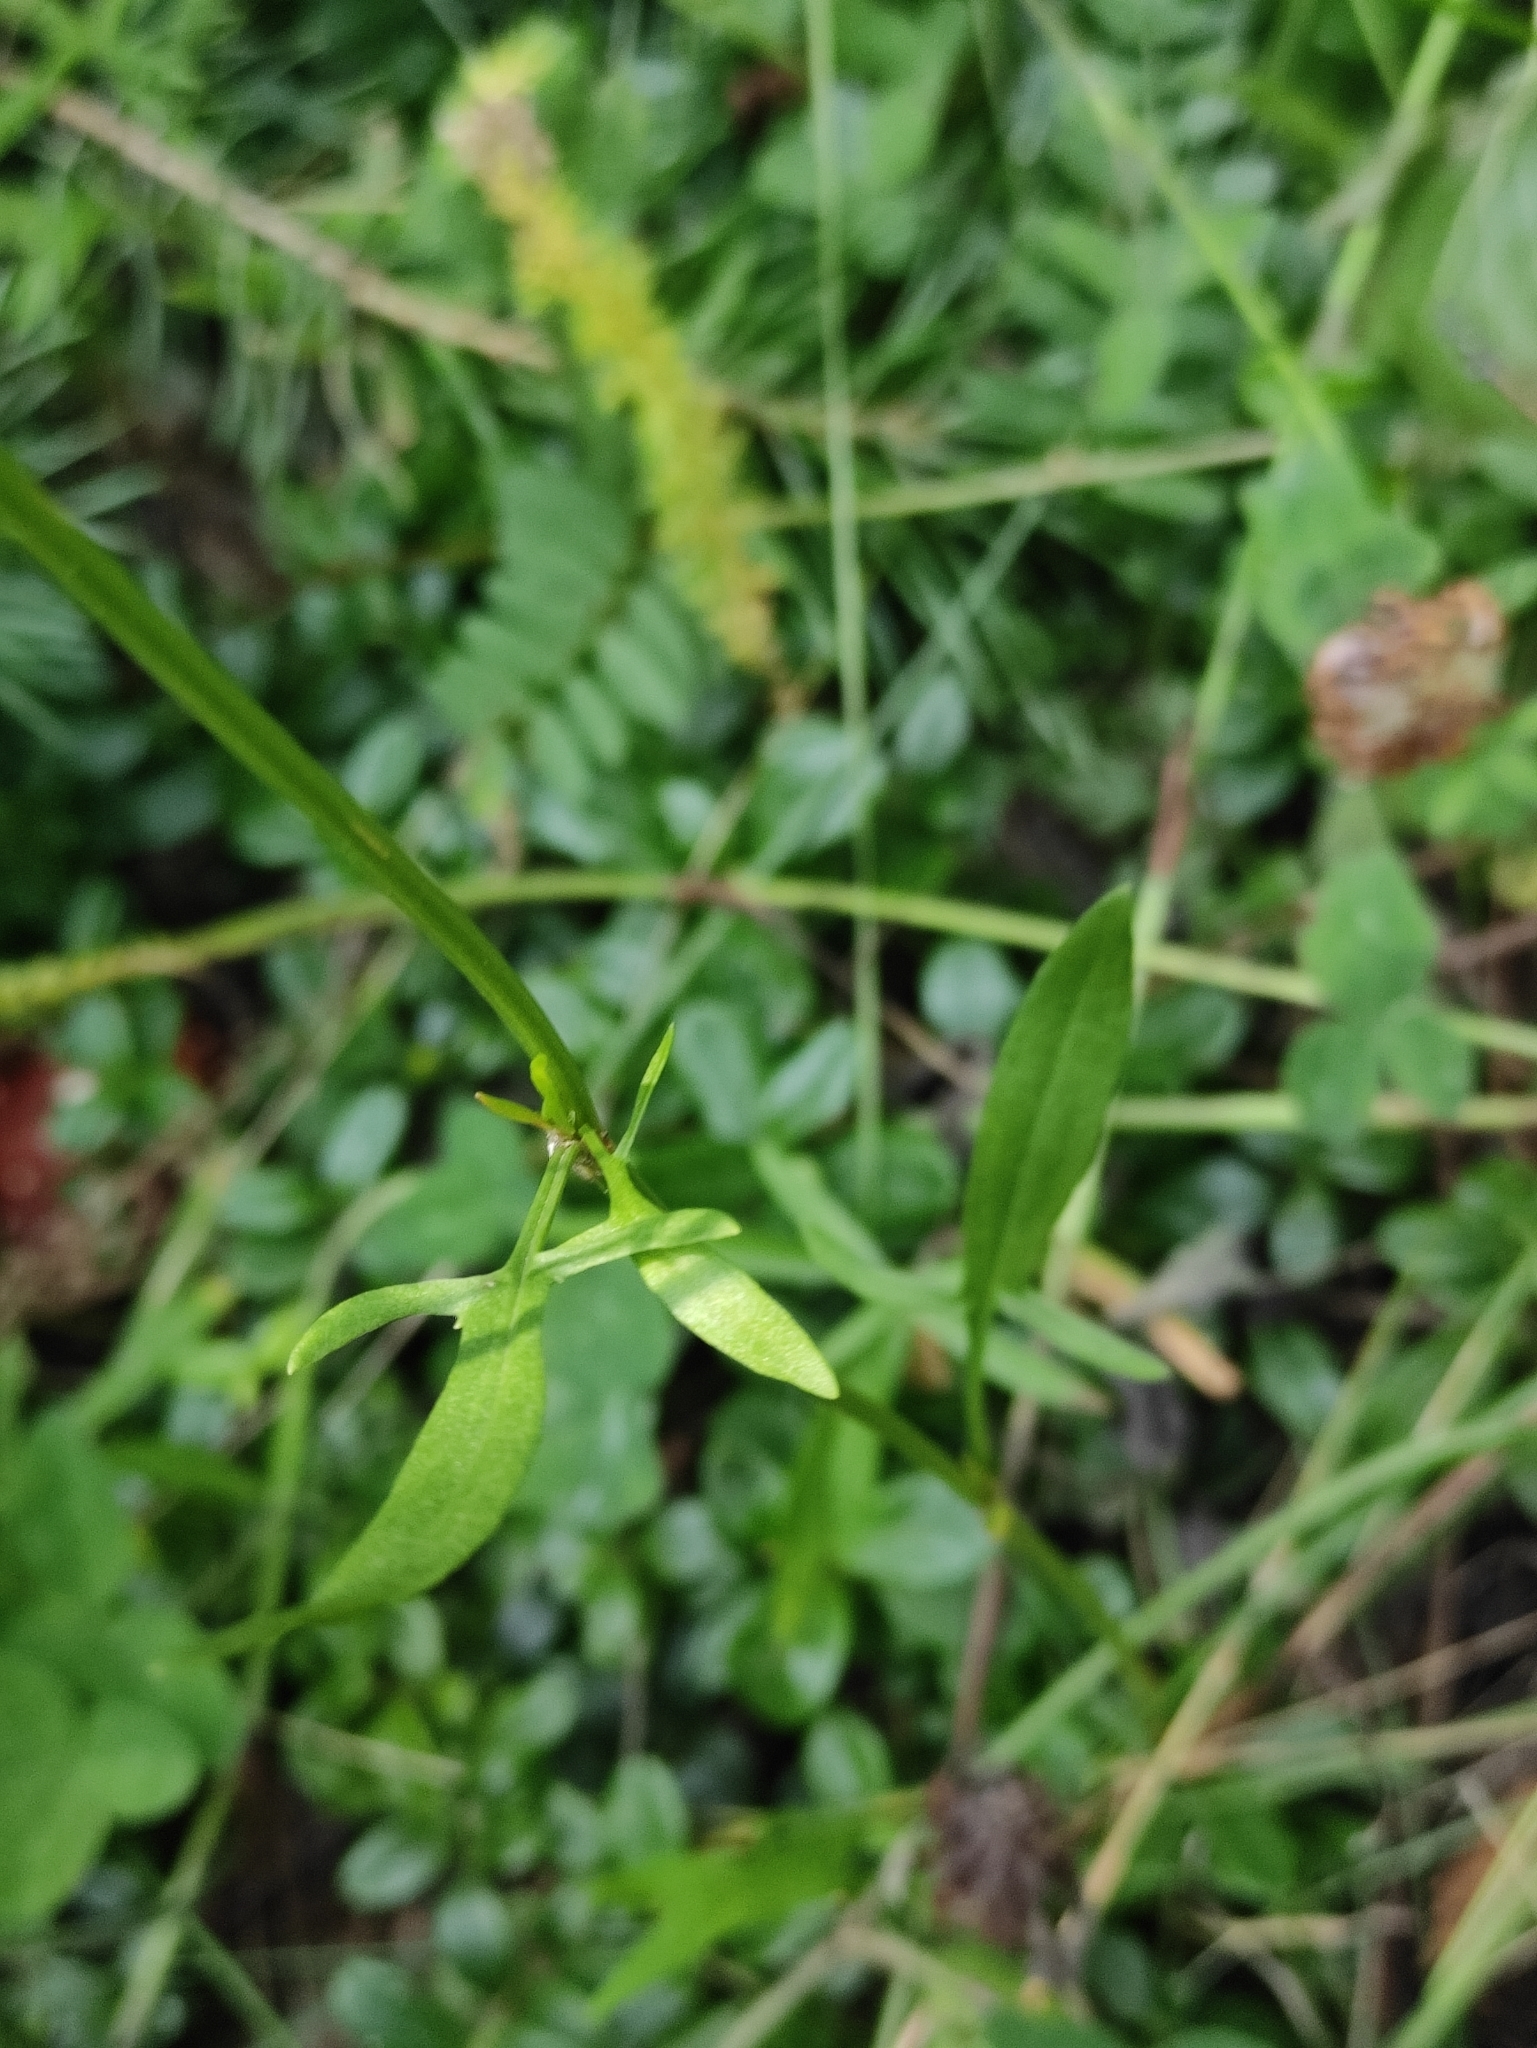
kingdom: Plantae
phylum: Tracheophyta
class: Magnoliopsida
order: Caryophyllales
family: Polygonaceae
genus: Rumex
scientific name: Rumex acetosella
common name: Common sheep sorrel
